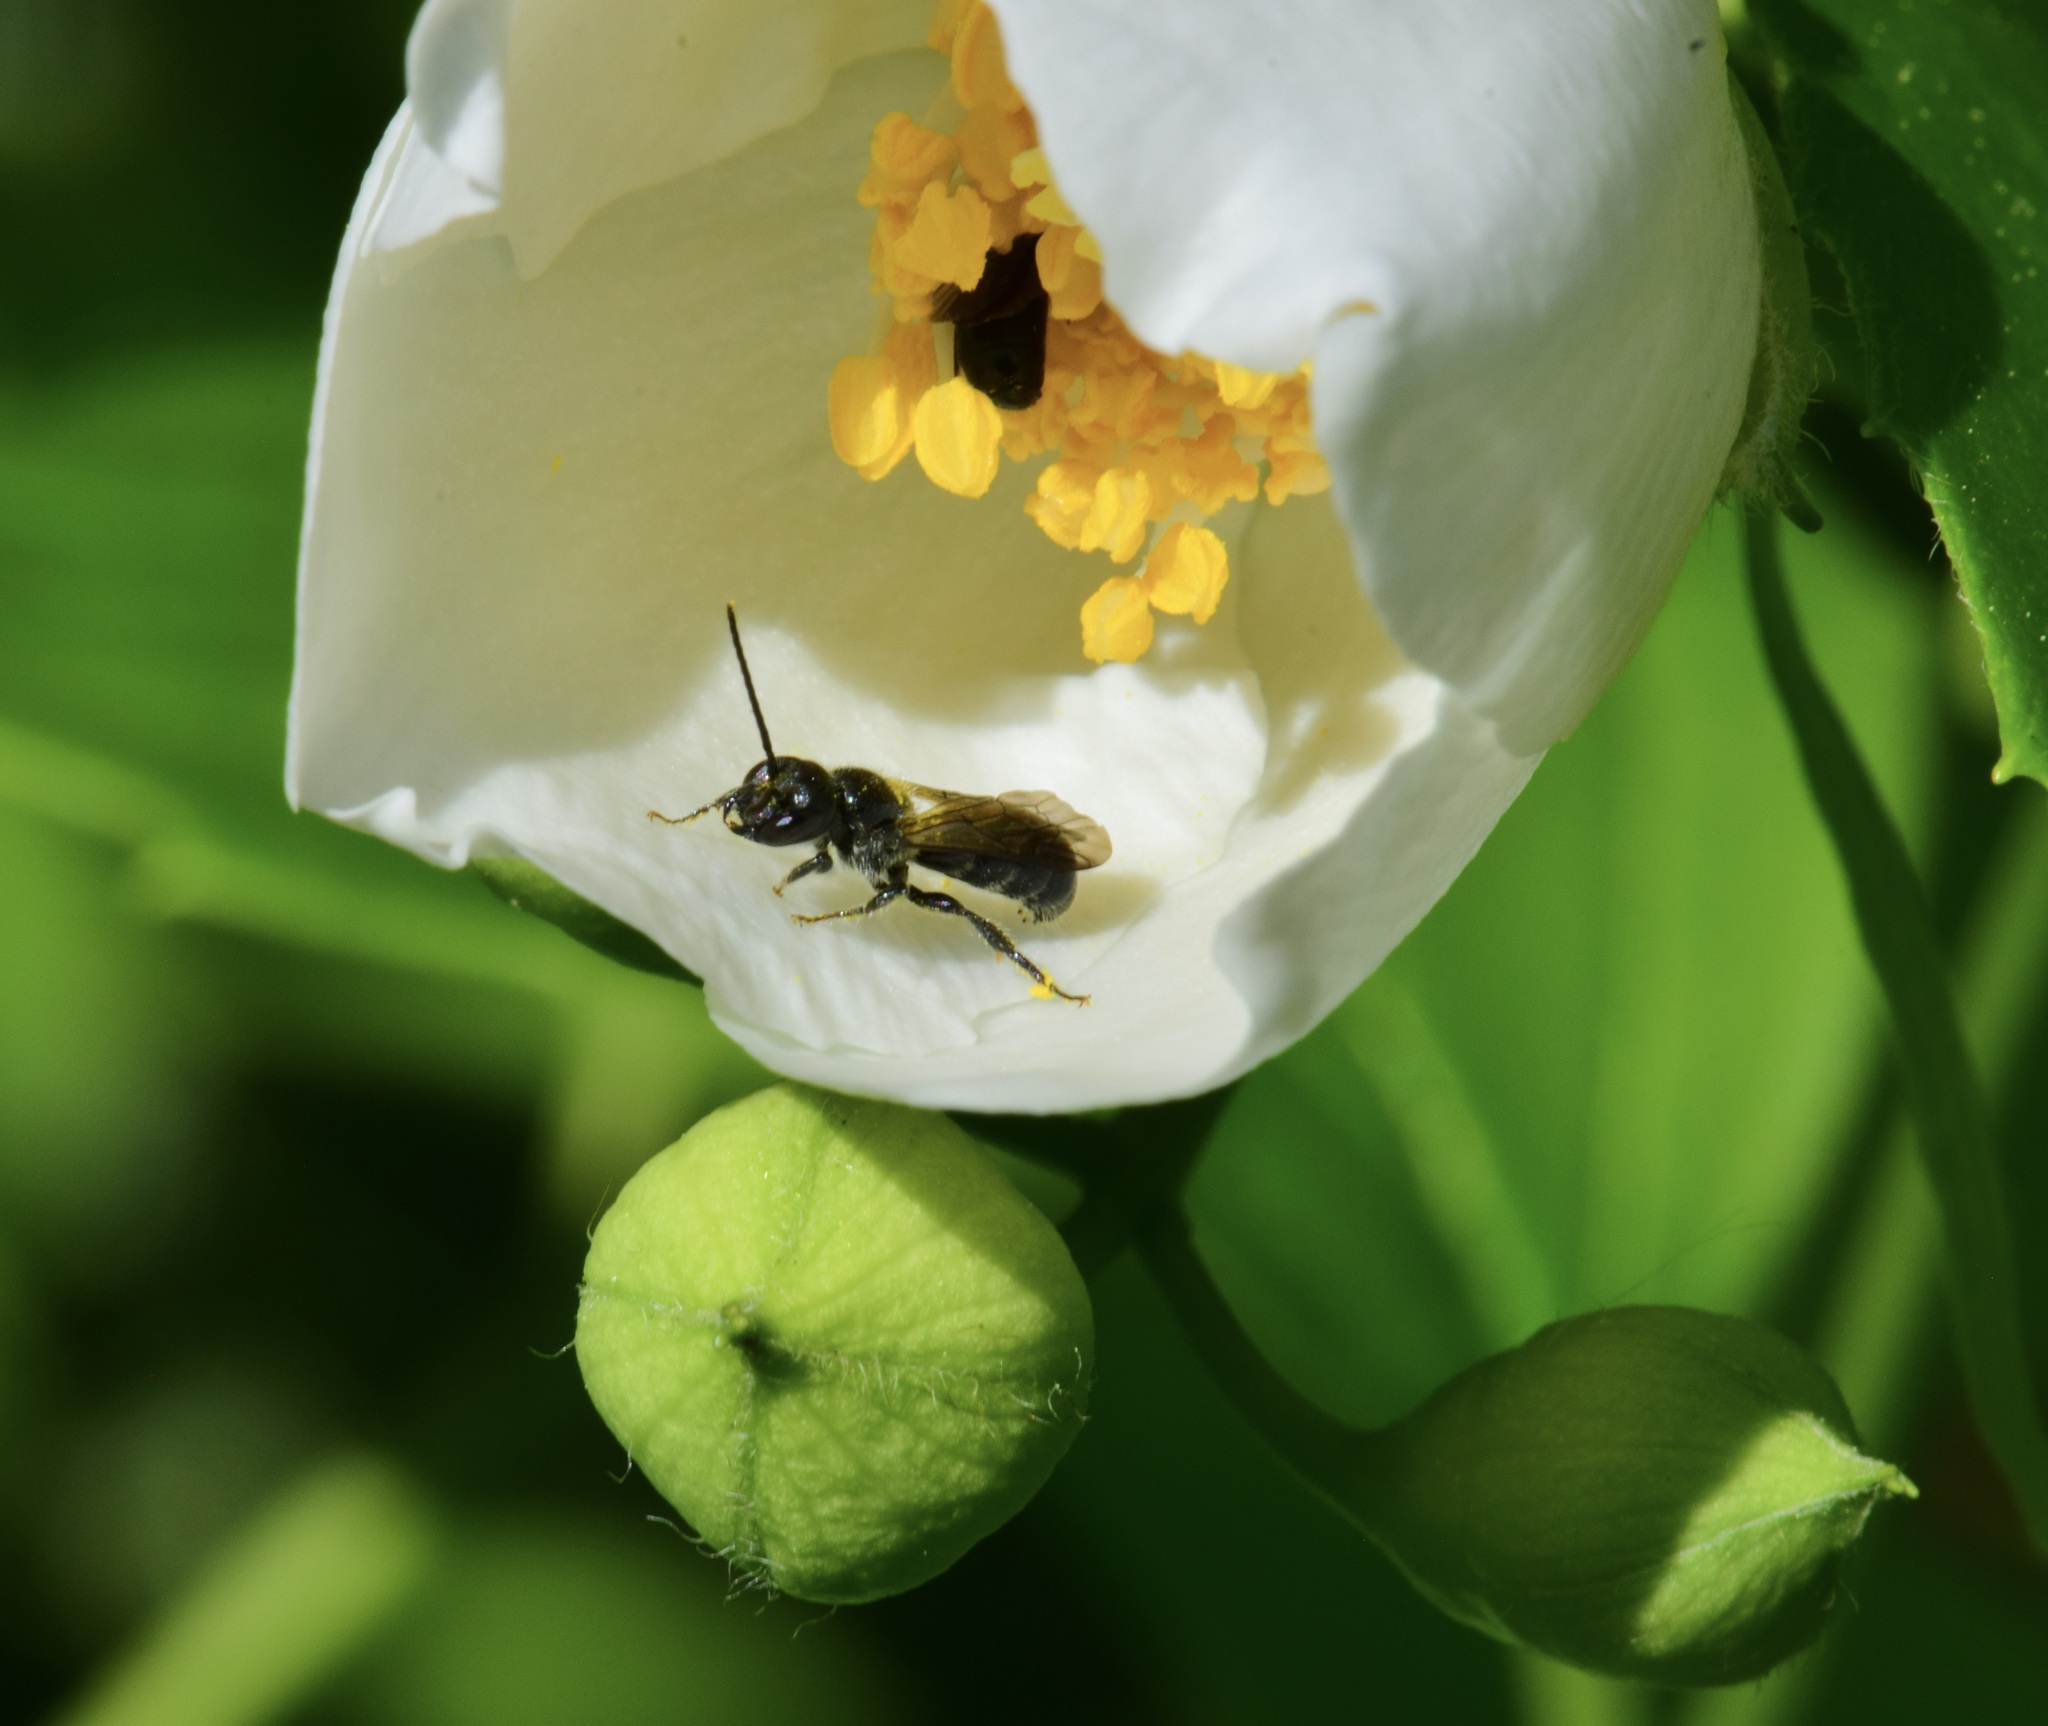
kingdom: Animalia
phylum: Arthropoda
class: Insecta
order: Hymenoptera
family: Megachilidae
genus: Chelostoma
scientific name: Chelostoma philadelphi
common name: Mock-orange scissor bee
